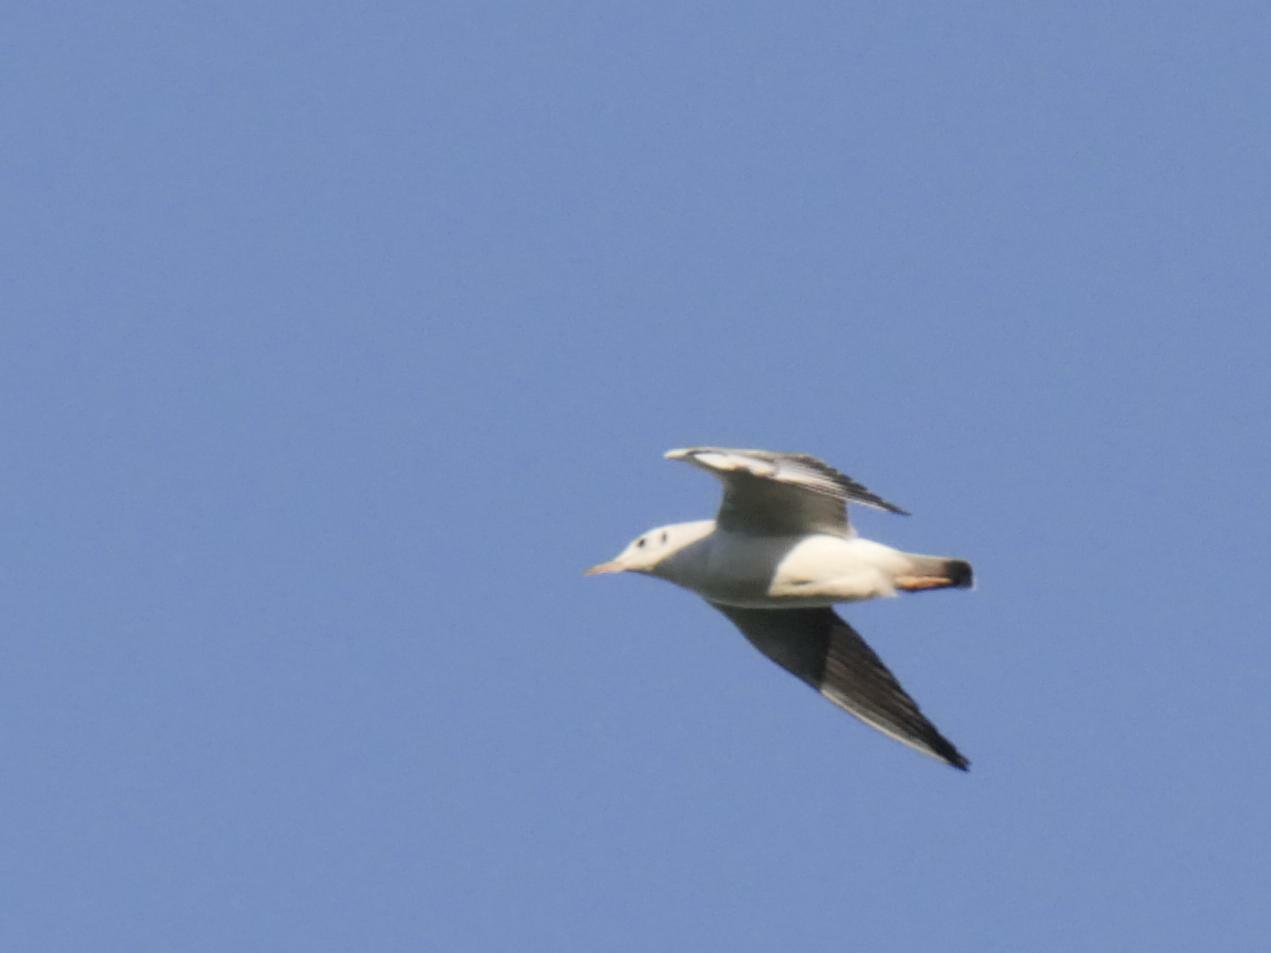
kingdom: Animalia
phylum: Chordata
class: Aves
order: Charadriiformes
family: Laridae
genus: Chroicocephalus
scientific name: Chroicocephalus ridibundus
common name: Black-headed gull
